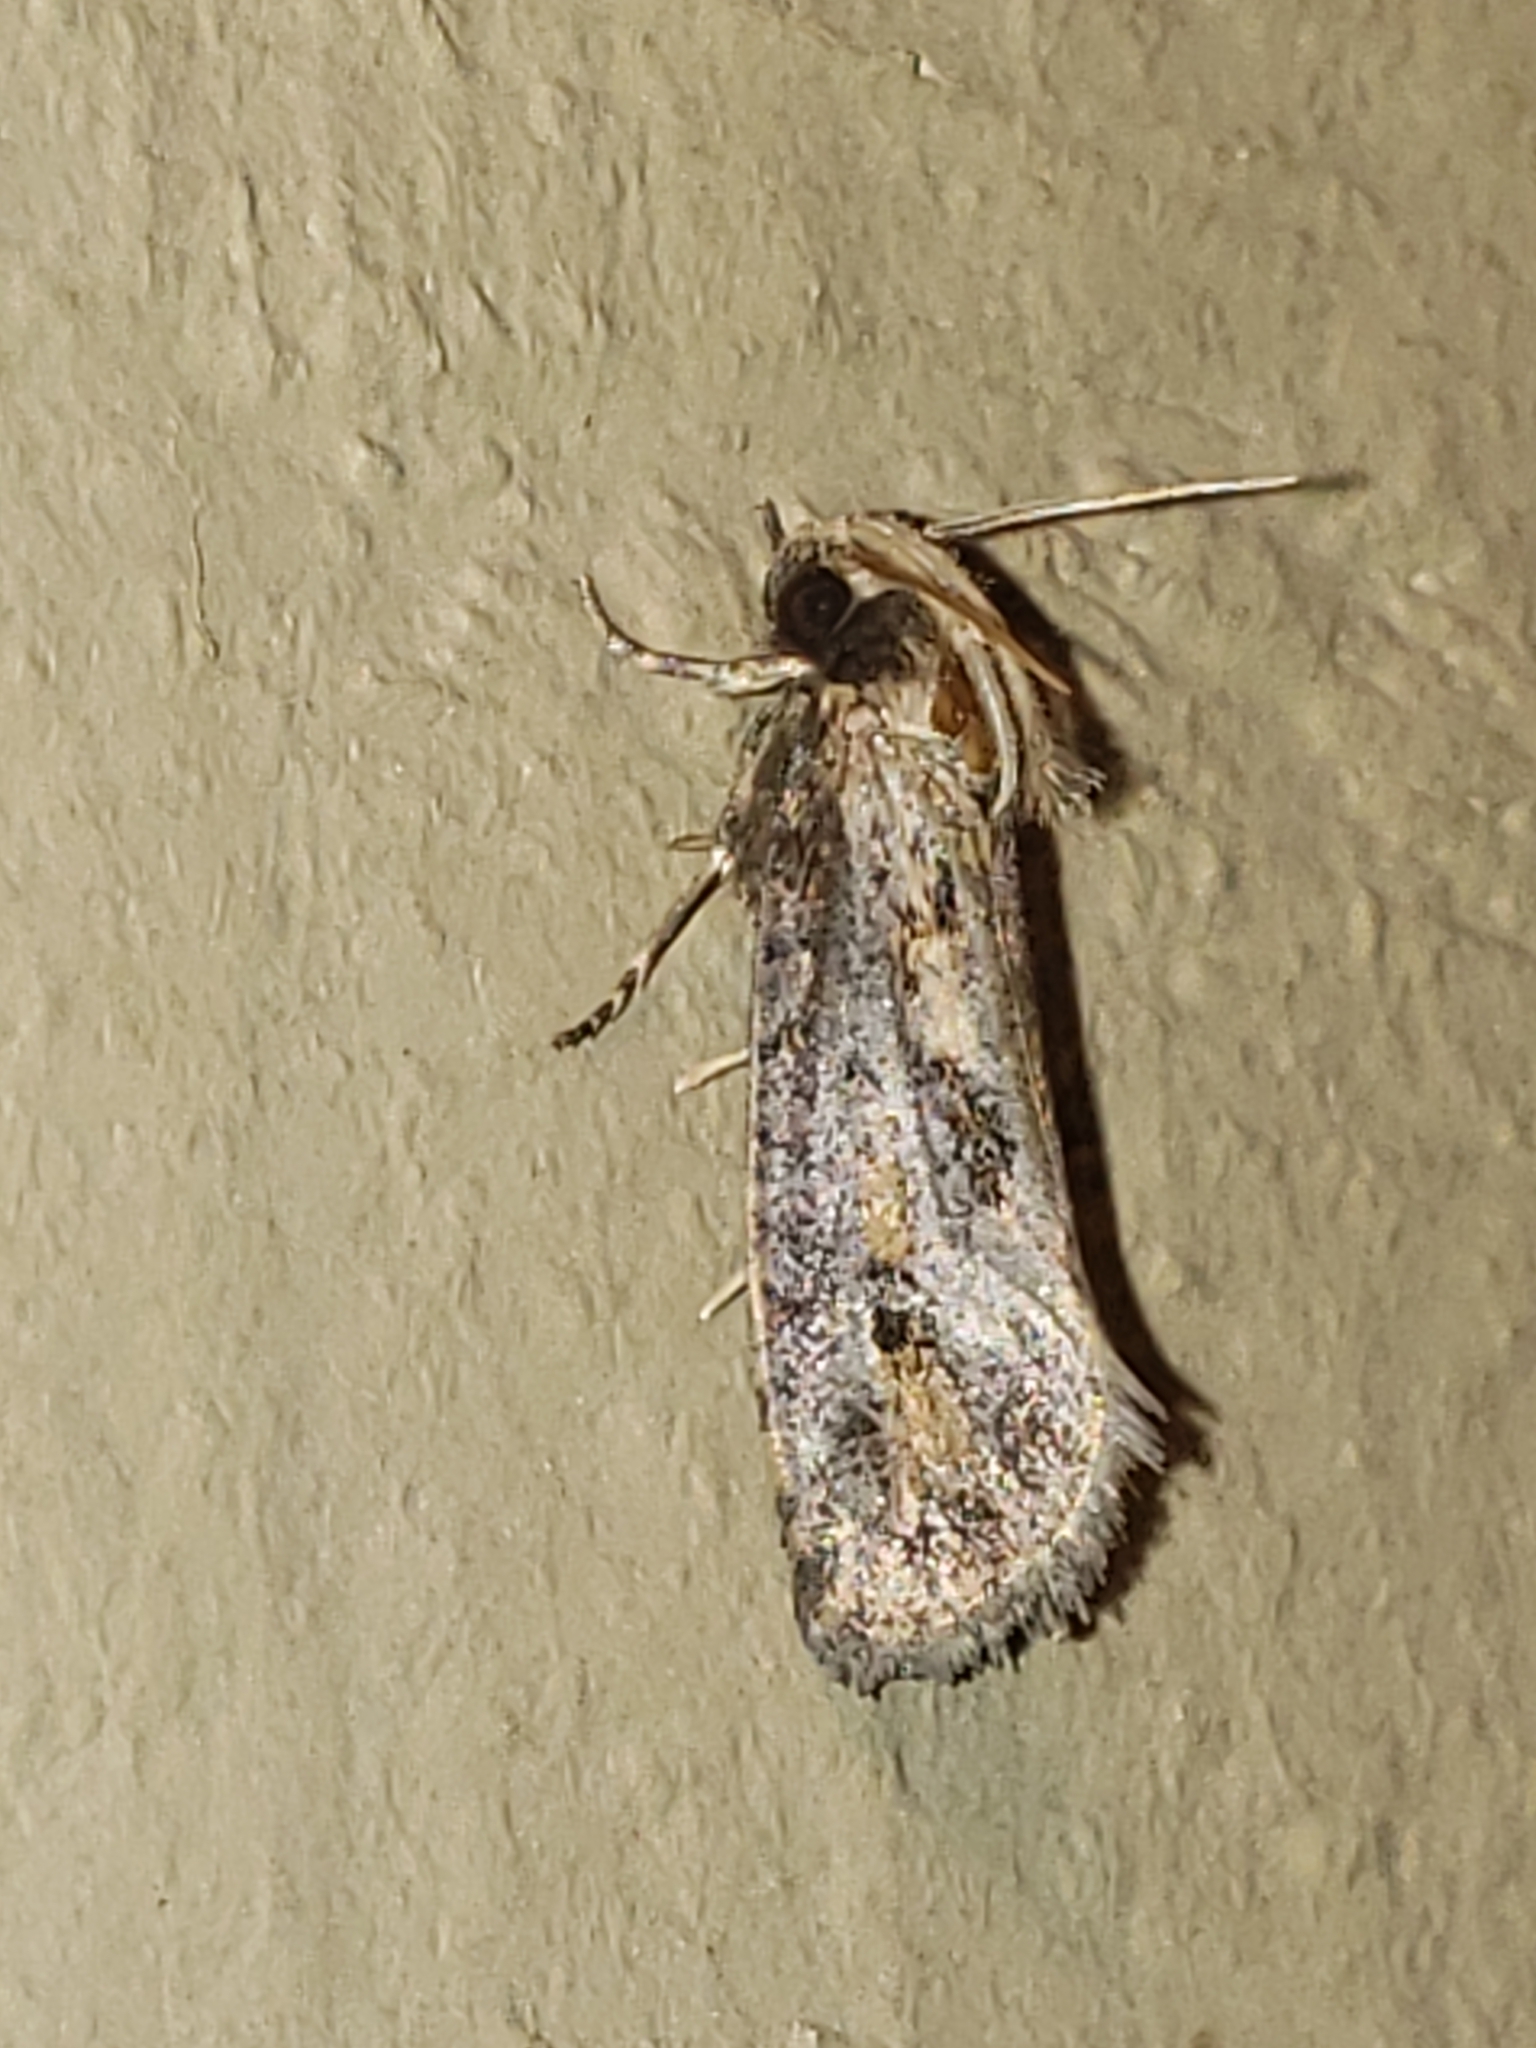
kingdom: Animalia
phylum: Arthropoda
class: Insecta
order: Lepidoptera
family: Tineidae
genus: Acrolophus
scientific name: Acrolophus popeanella
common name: Clemens' grass tubeworm moth
